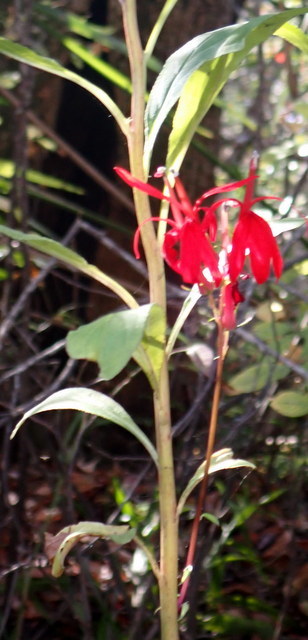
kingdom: Plantae
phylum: Tracheophyta
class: Magnoliopsida
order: Asterales
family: Campanulaceae
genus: Lobelia
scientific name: Lobelia cardinalis
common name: Cardinal flower
